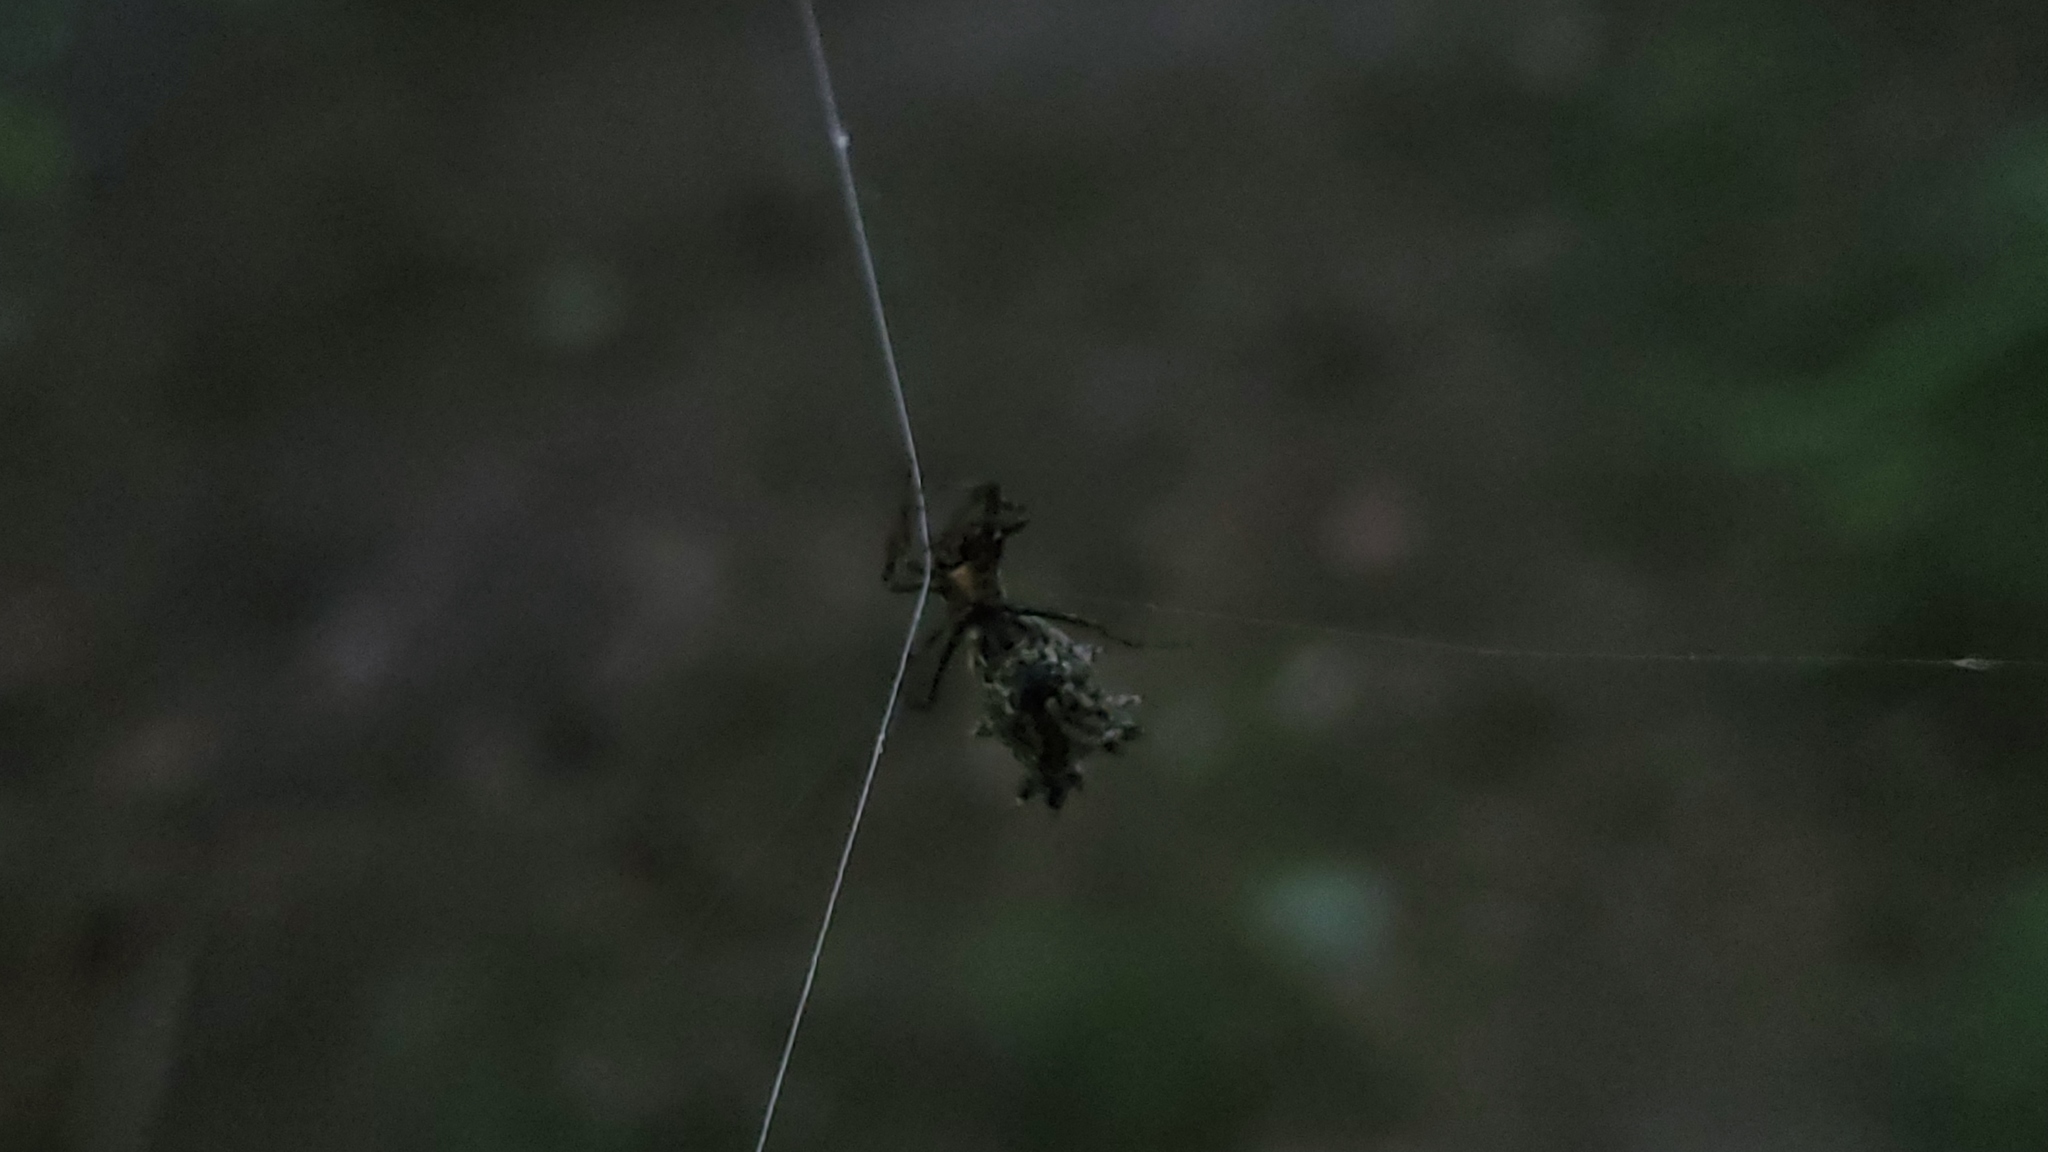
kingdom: Animalia
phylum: Arthropoda
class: Arachnida
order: Araneae
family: Araneidae
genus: Micrathena
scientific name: Micrathena gracilis
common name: Orb weavers
